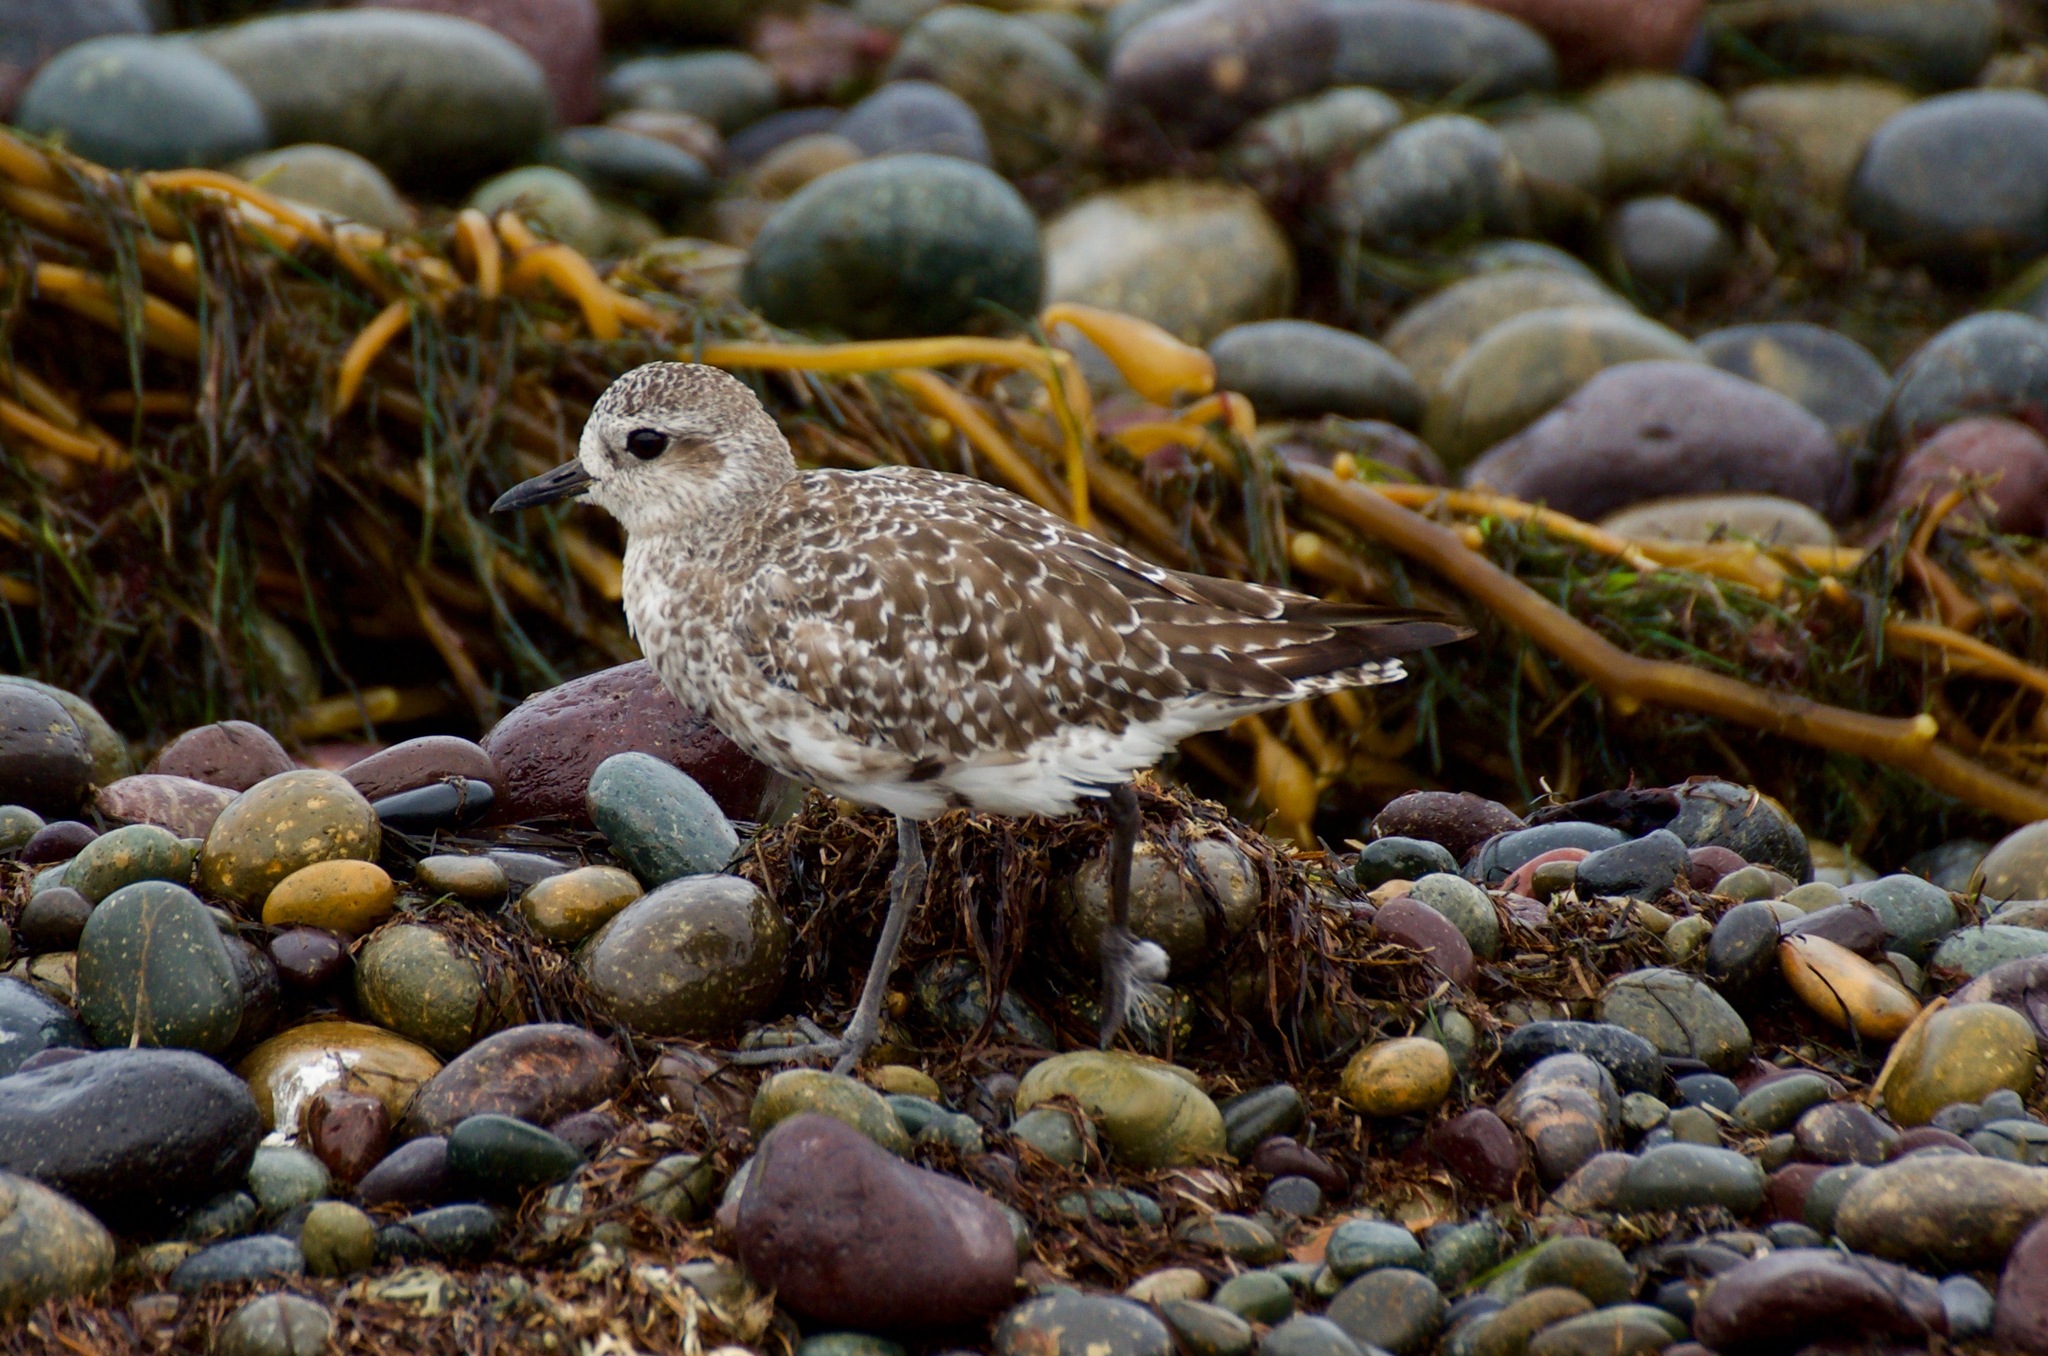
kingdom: Animalia
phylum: Chordata
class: Aves
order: Charadriiformes
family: Charadriidae
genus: Pluvialis
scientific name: Pluvialis squatarola
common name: Grey plover
